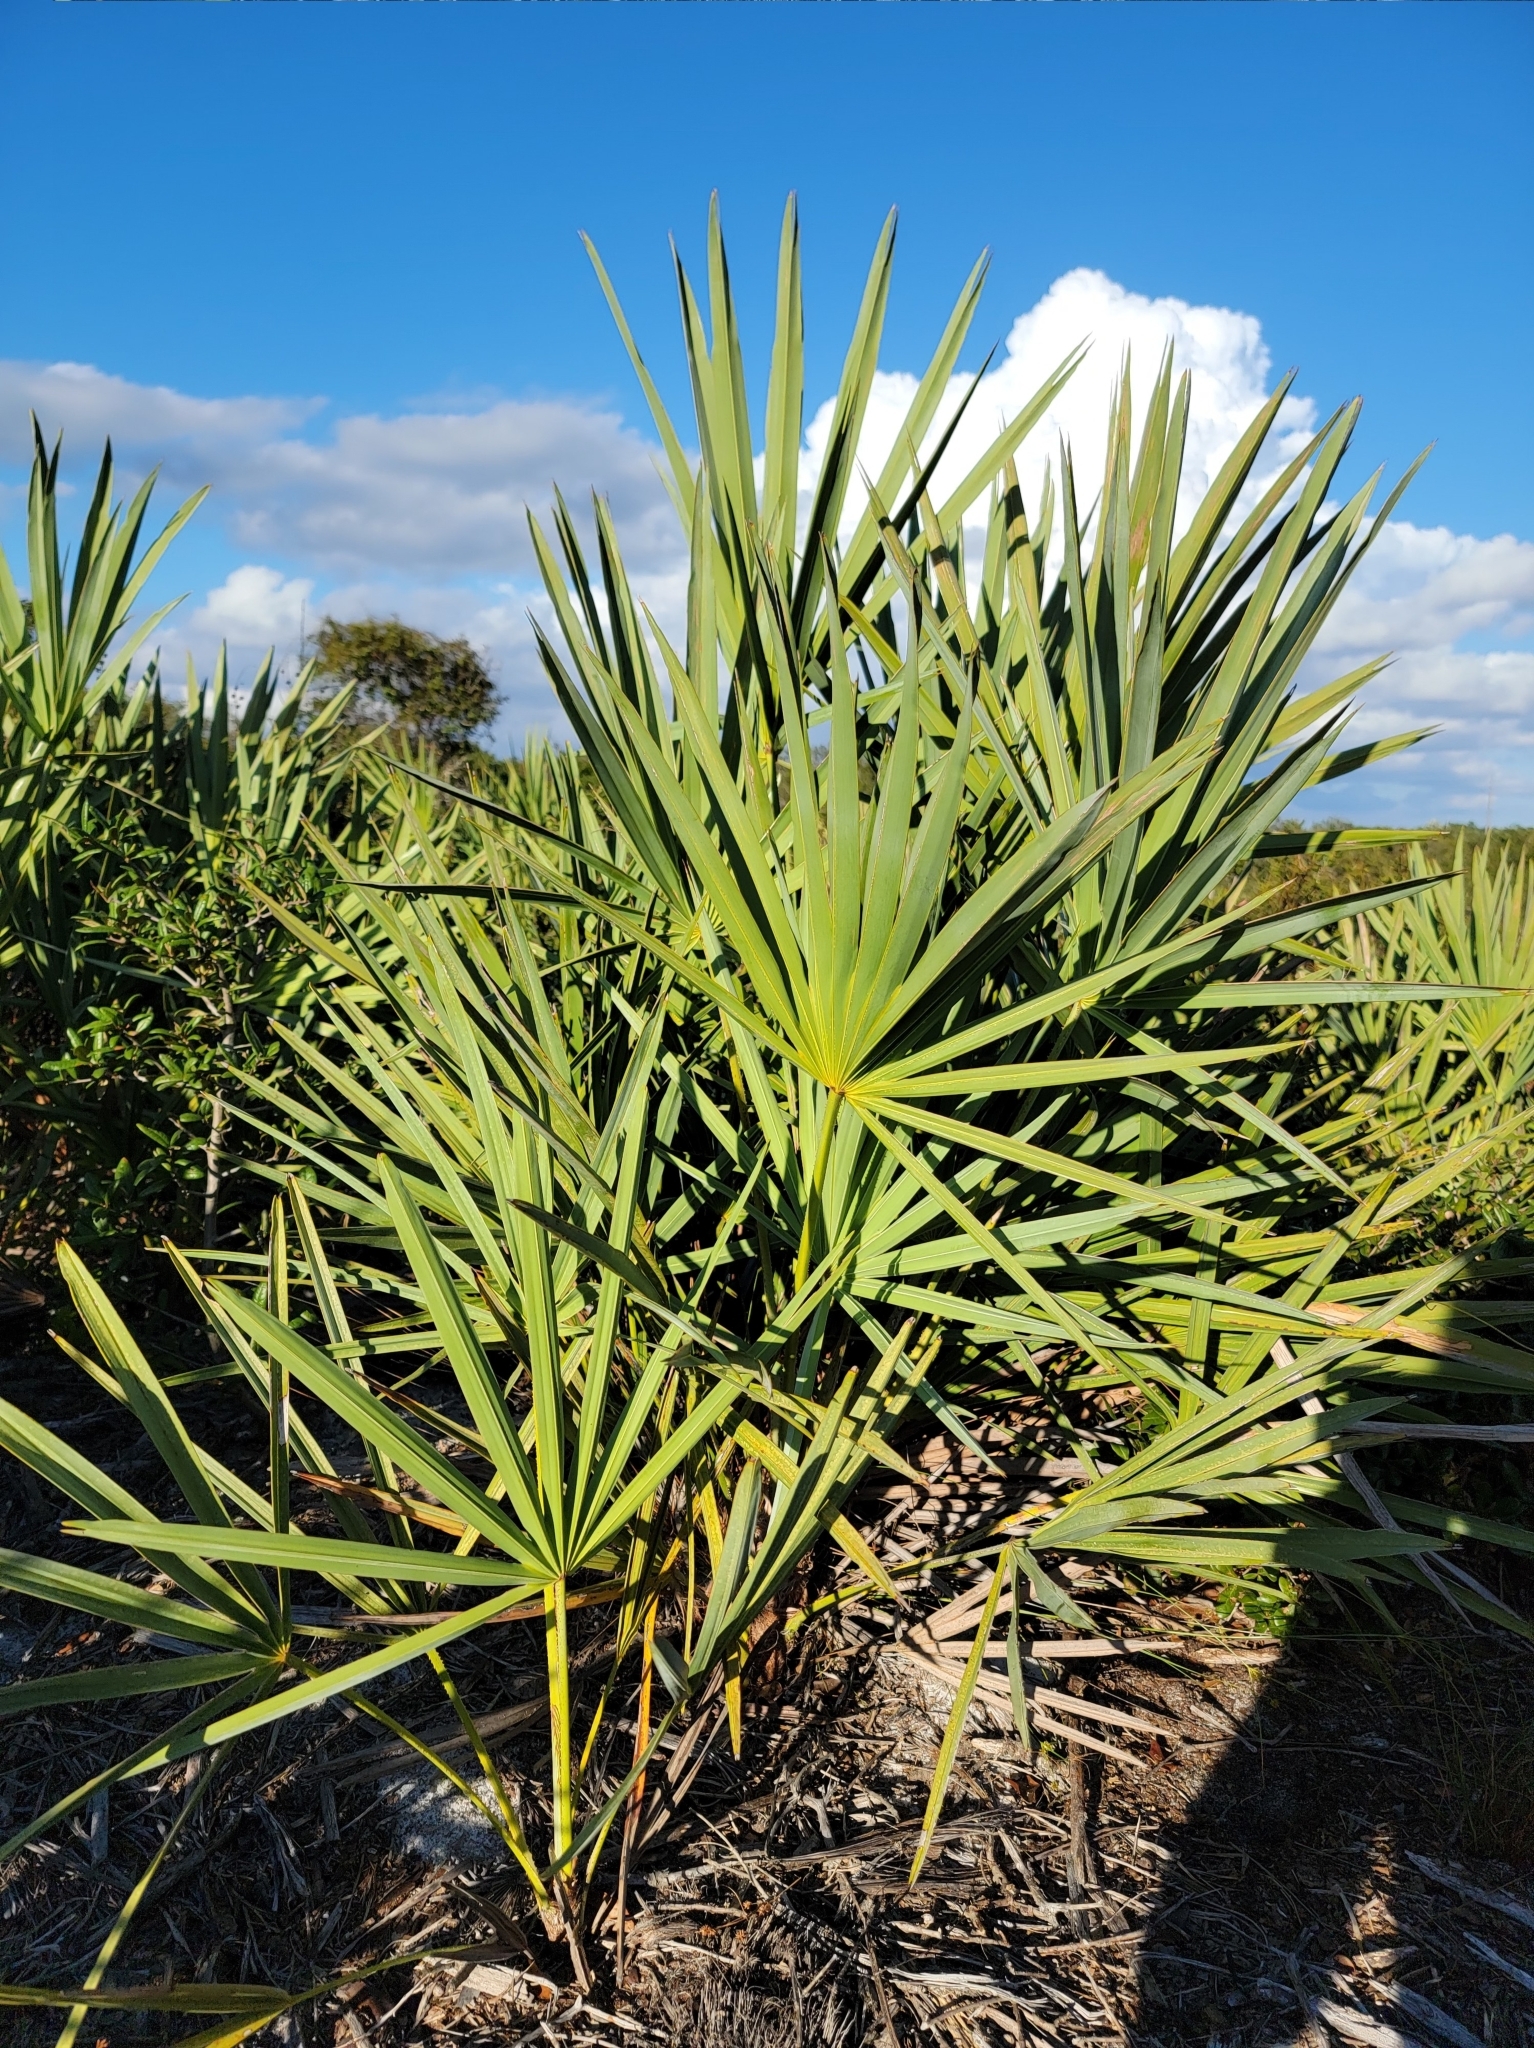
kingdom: Plantae
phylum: Tracheophyta
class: Liliopsida
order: Arecales
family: Arecaceae
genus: Serenoa
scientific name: Serenoa repens
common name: Saw-palmetto
